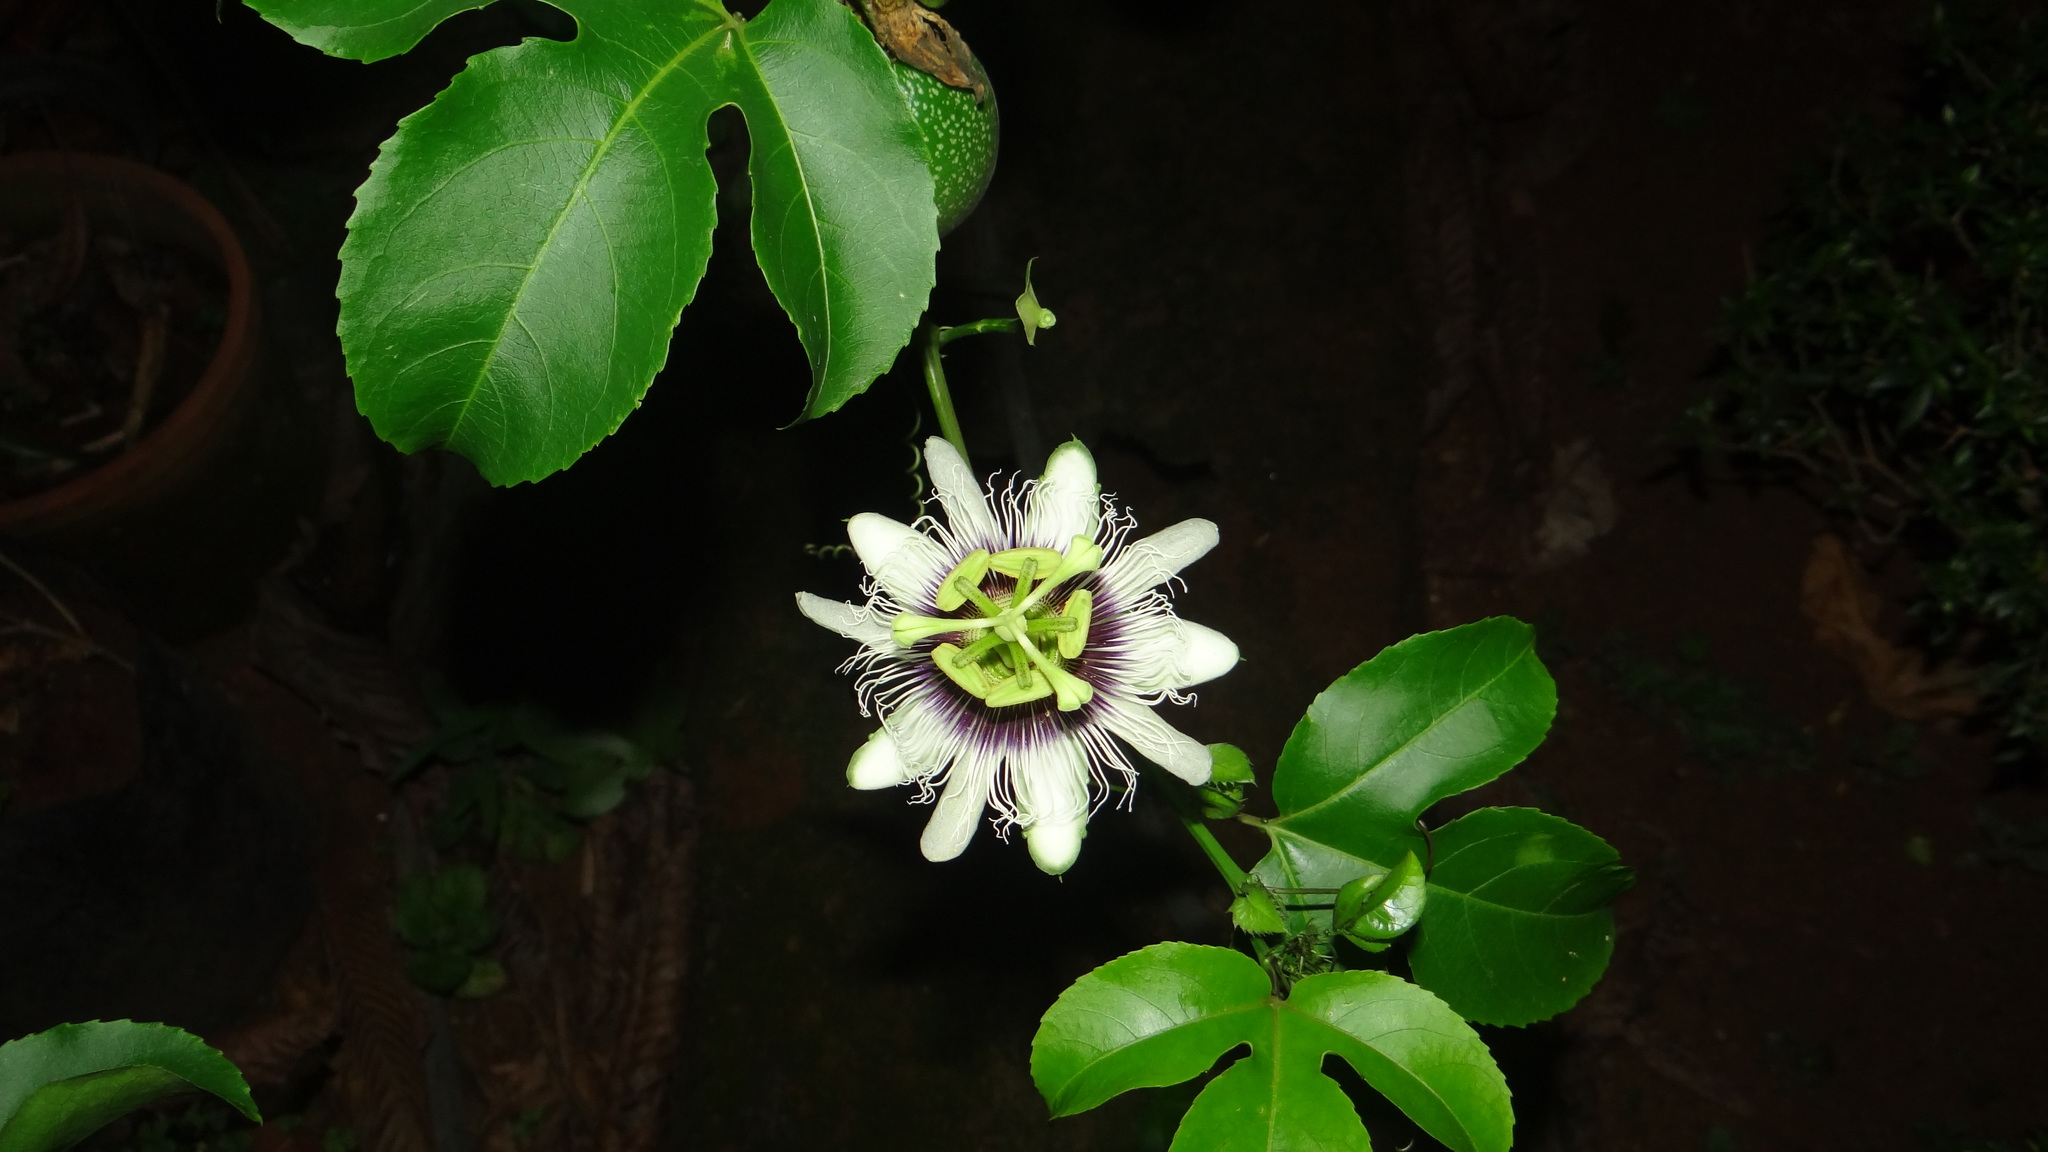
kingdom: Plantae
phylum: Tracheophyta
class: Magnoliopsida
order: Malpighiales
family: Passifloraceae
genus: Passiflora
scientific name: Passiflora edulis
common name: Purple granadilla
